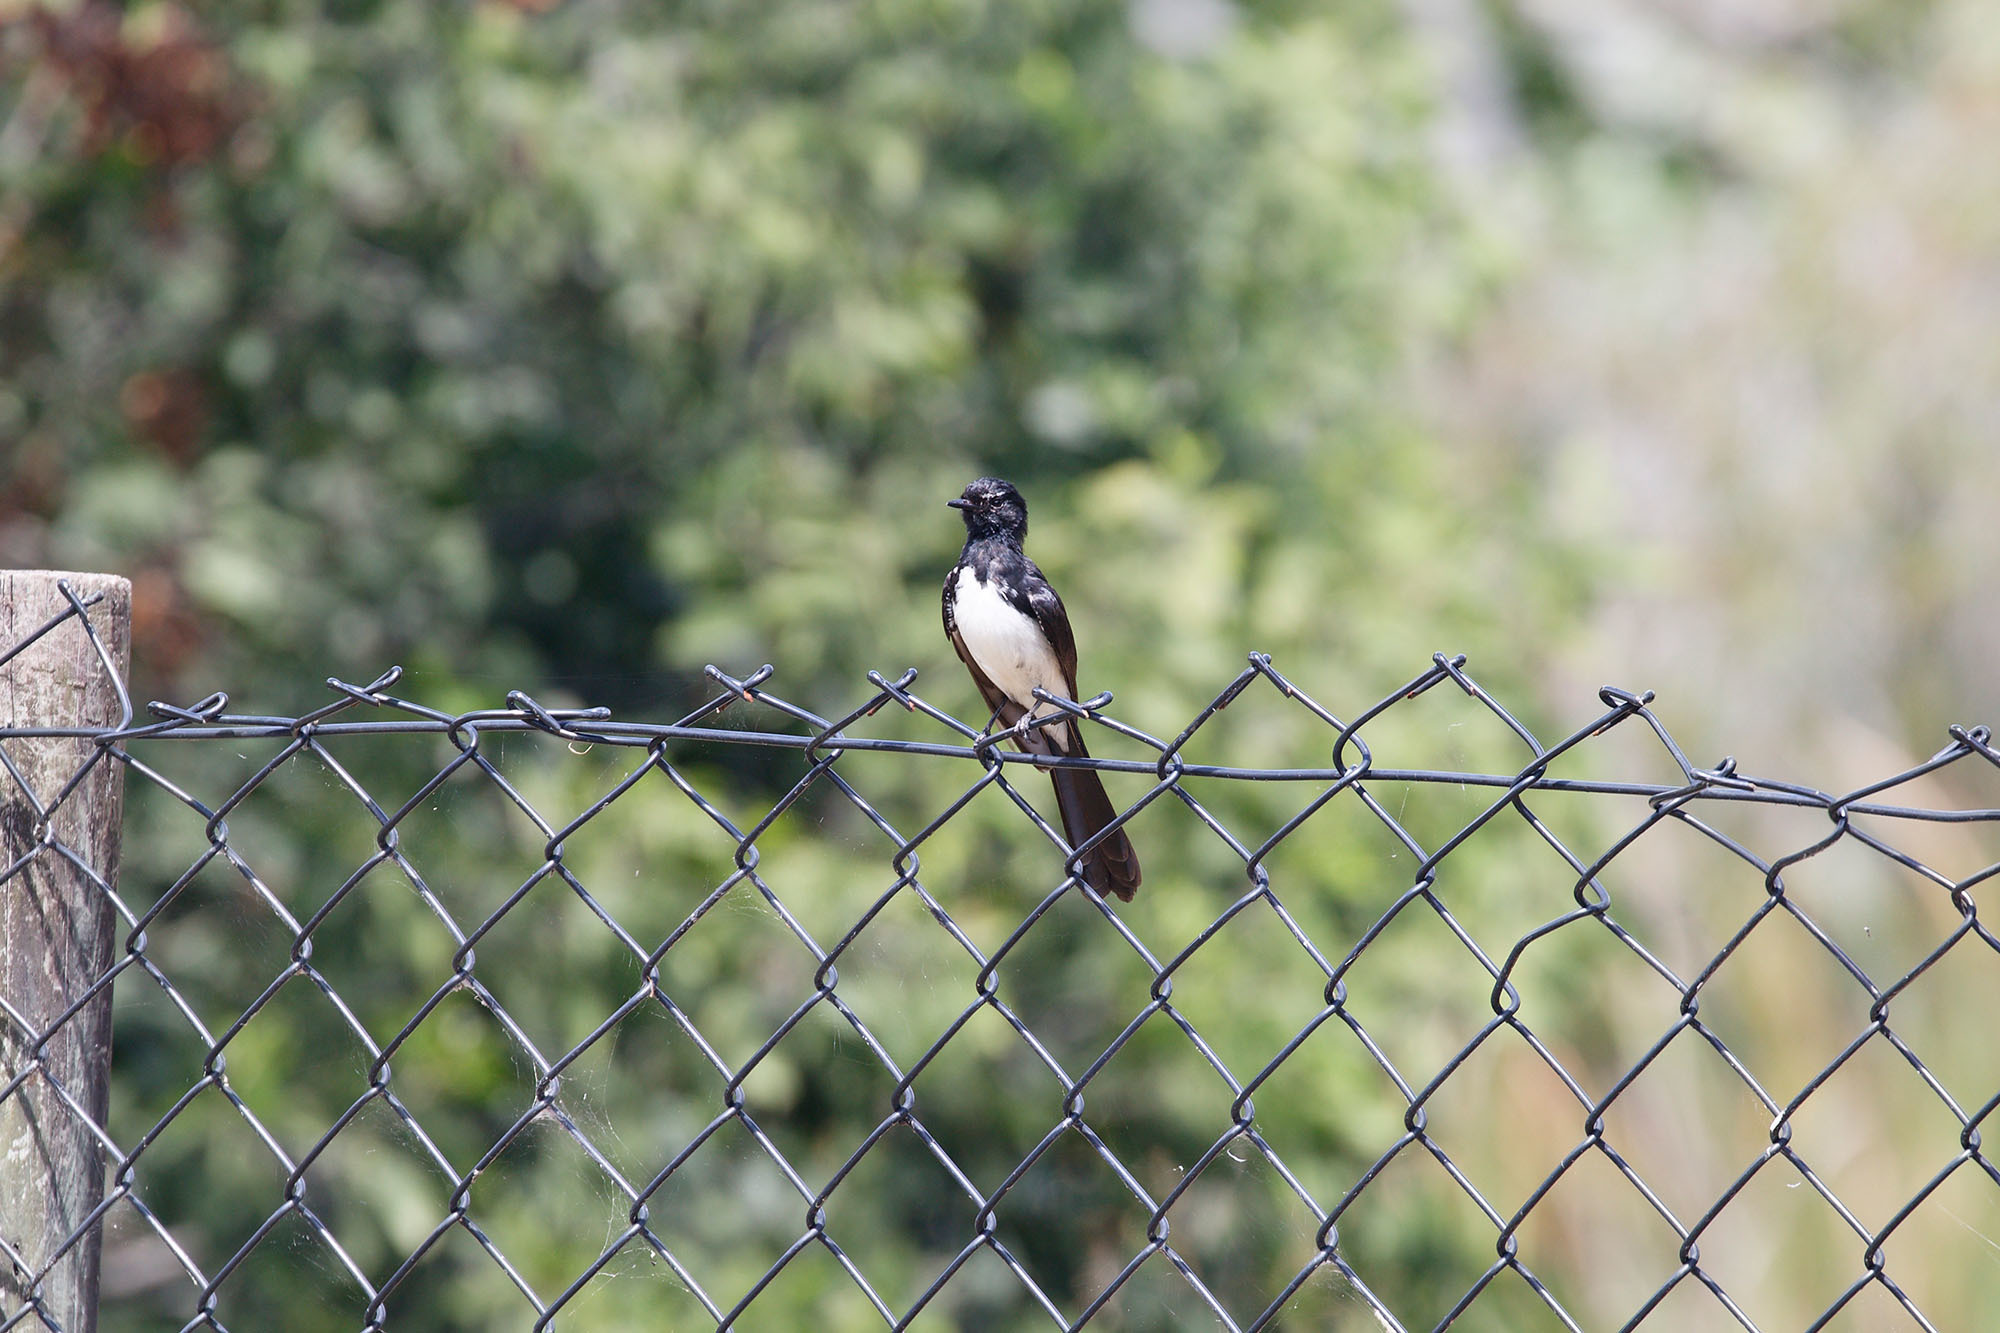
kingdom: Animalia
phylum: Chordata
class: Aves
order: Passeriformes
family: Rhipiduridae
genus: Rhipidura
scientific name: Rhipidura leucophrys
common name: Willie wagtail
